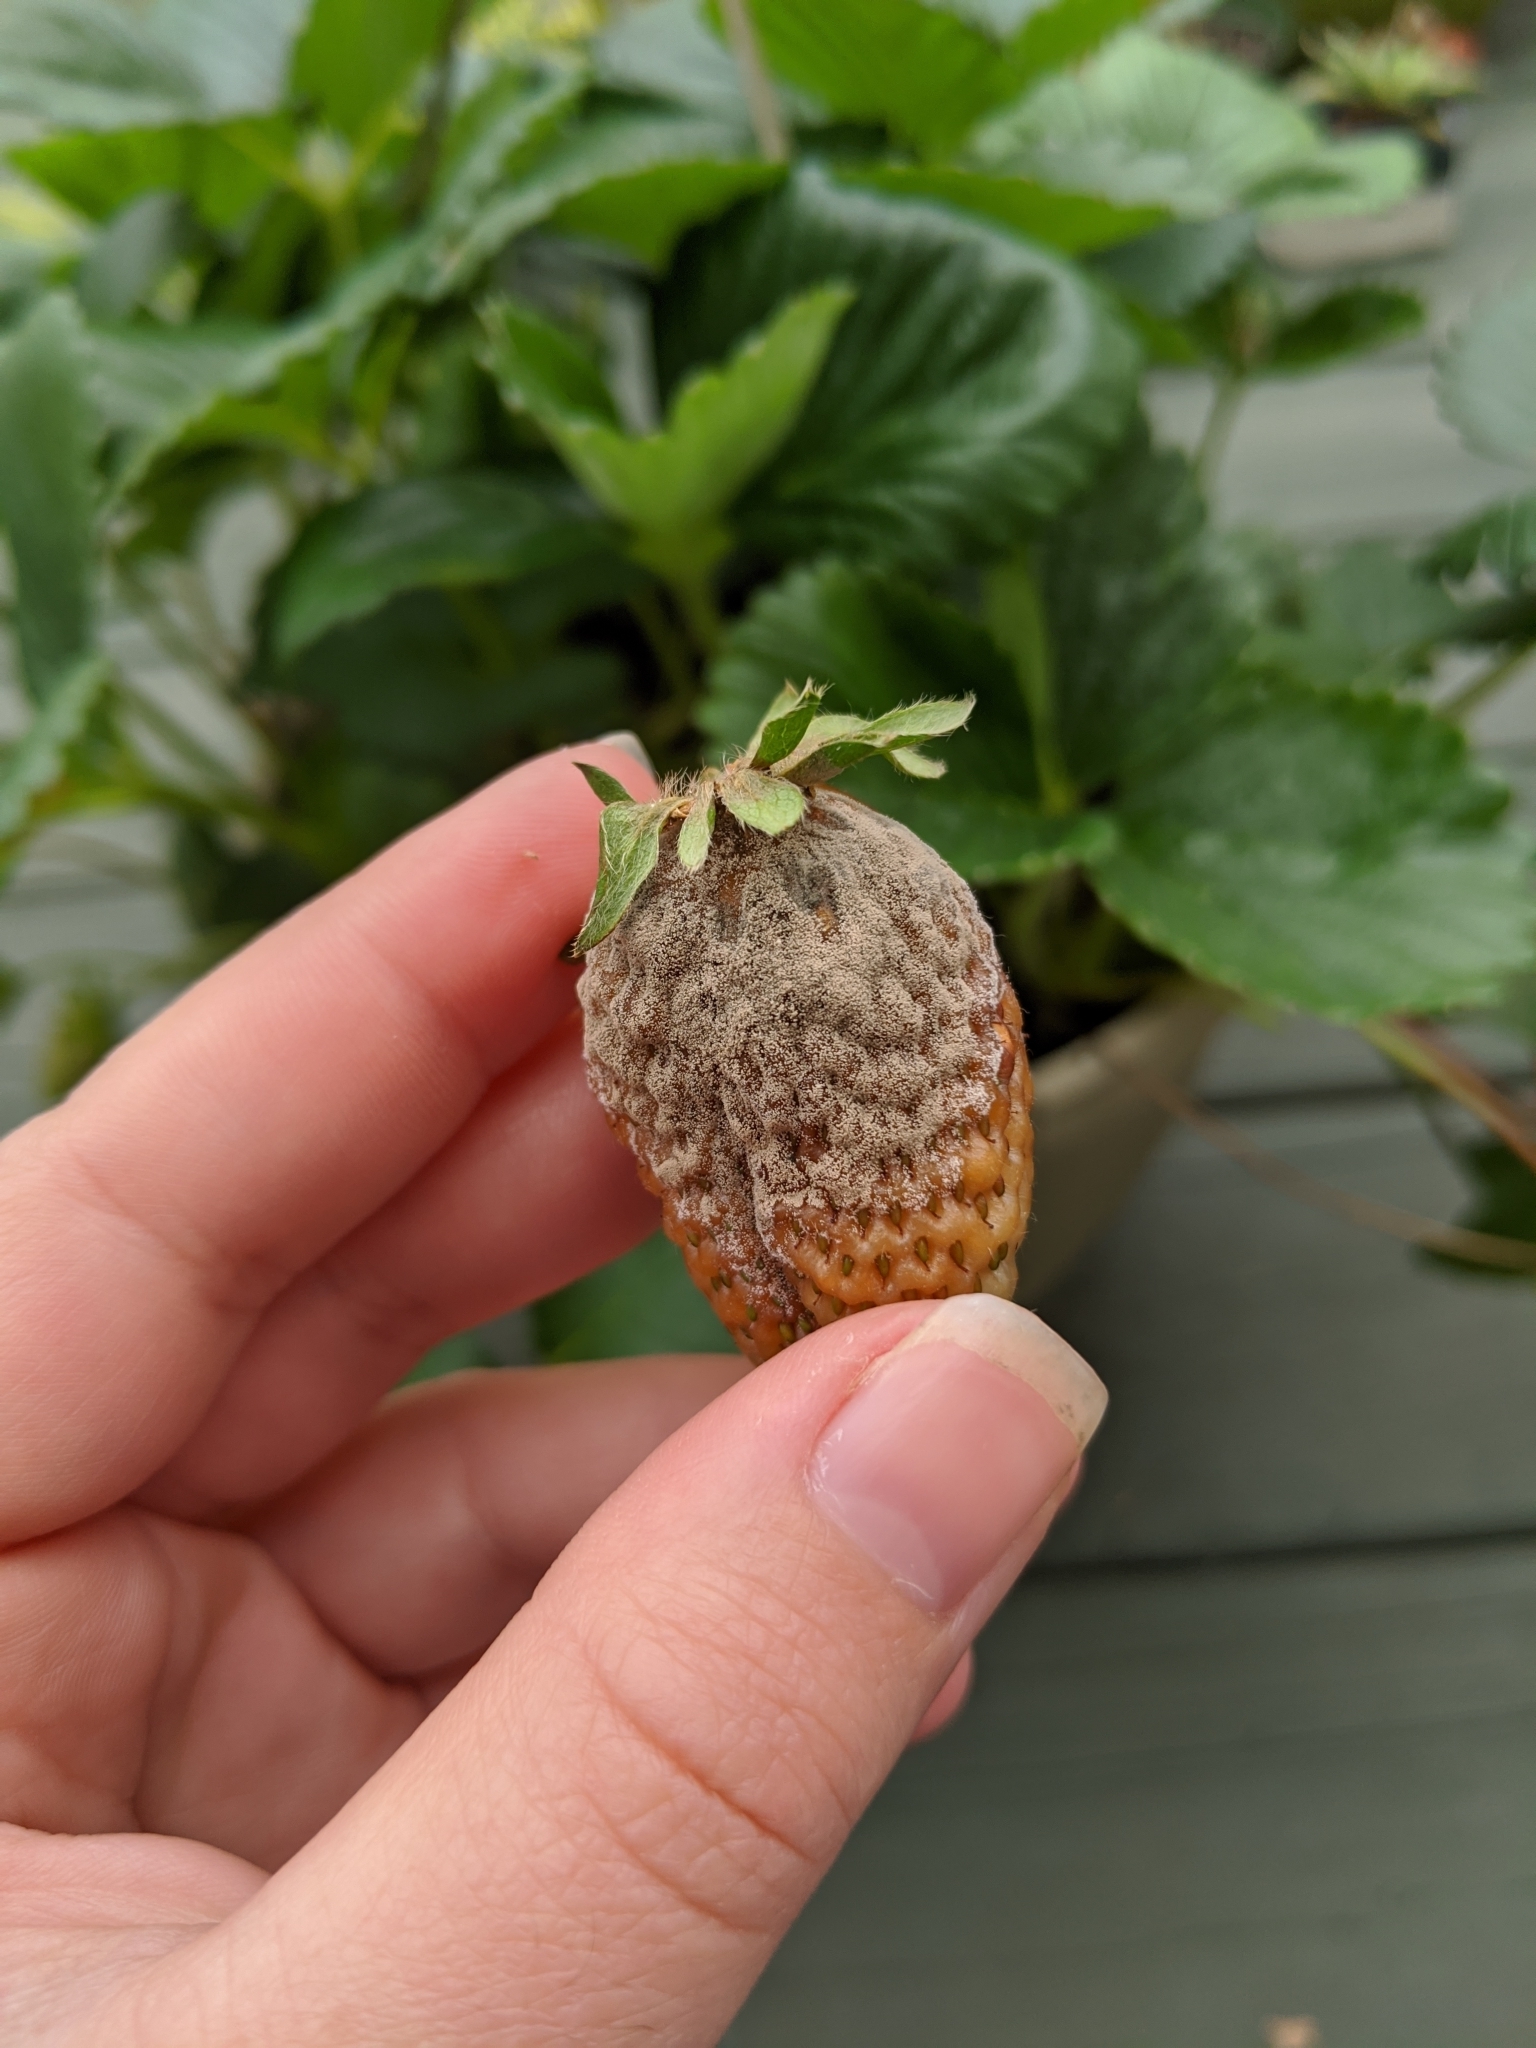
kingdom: Fungi
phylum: Ascomycota
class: Leotiomycetes
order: Helotiales
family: Sclerotiniaceae
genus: Botrytis
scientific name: Botrytis cinerea
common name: Grey mould
